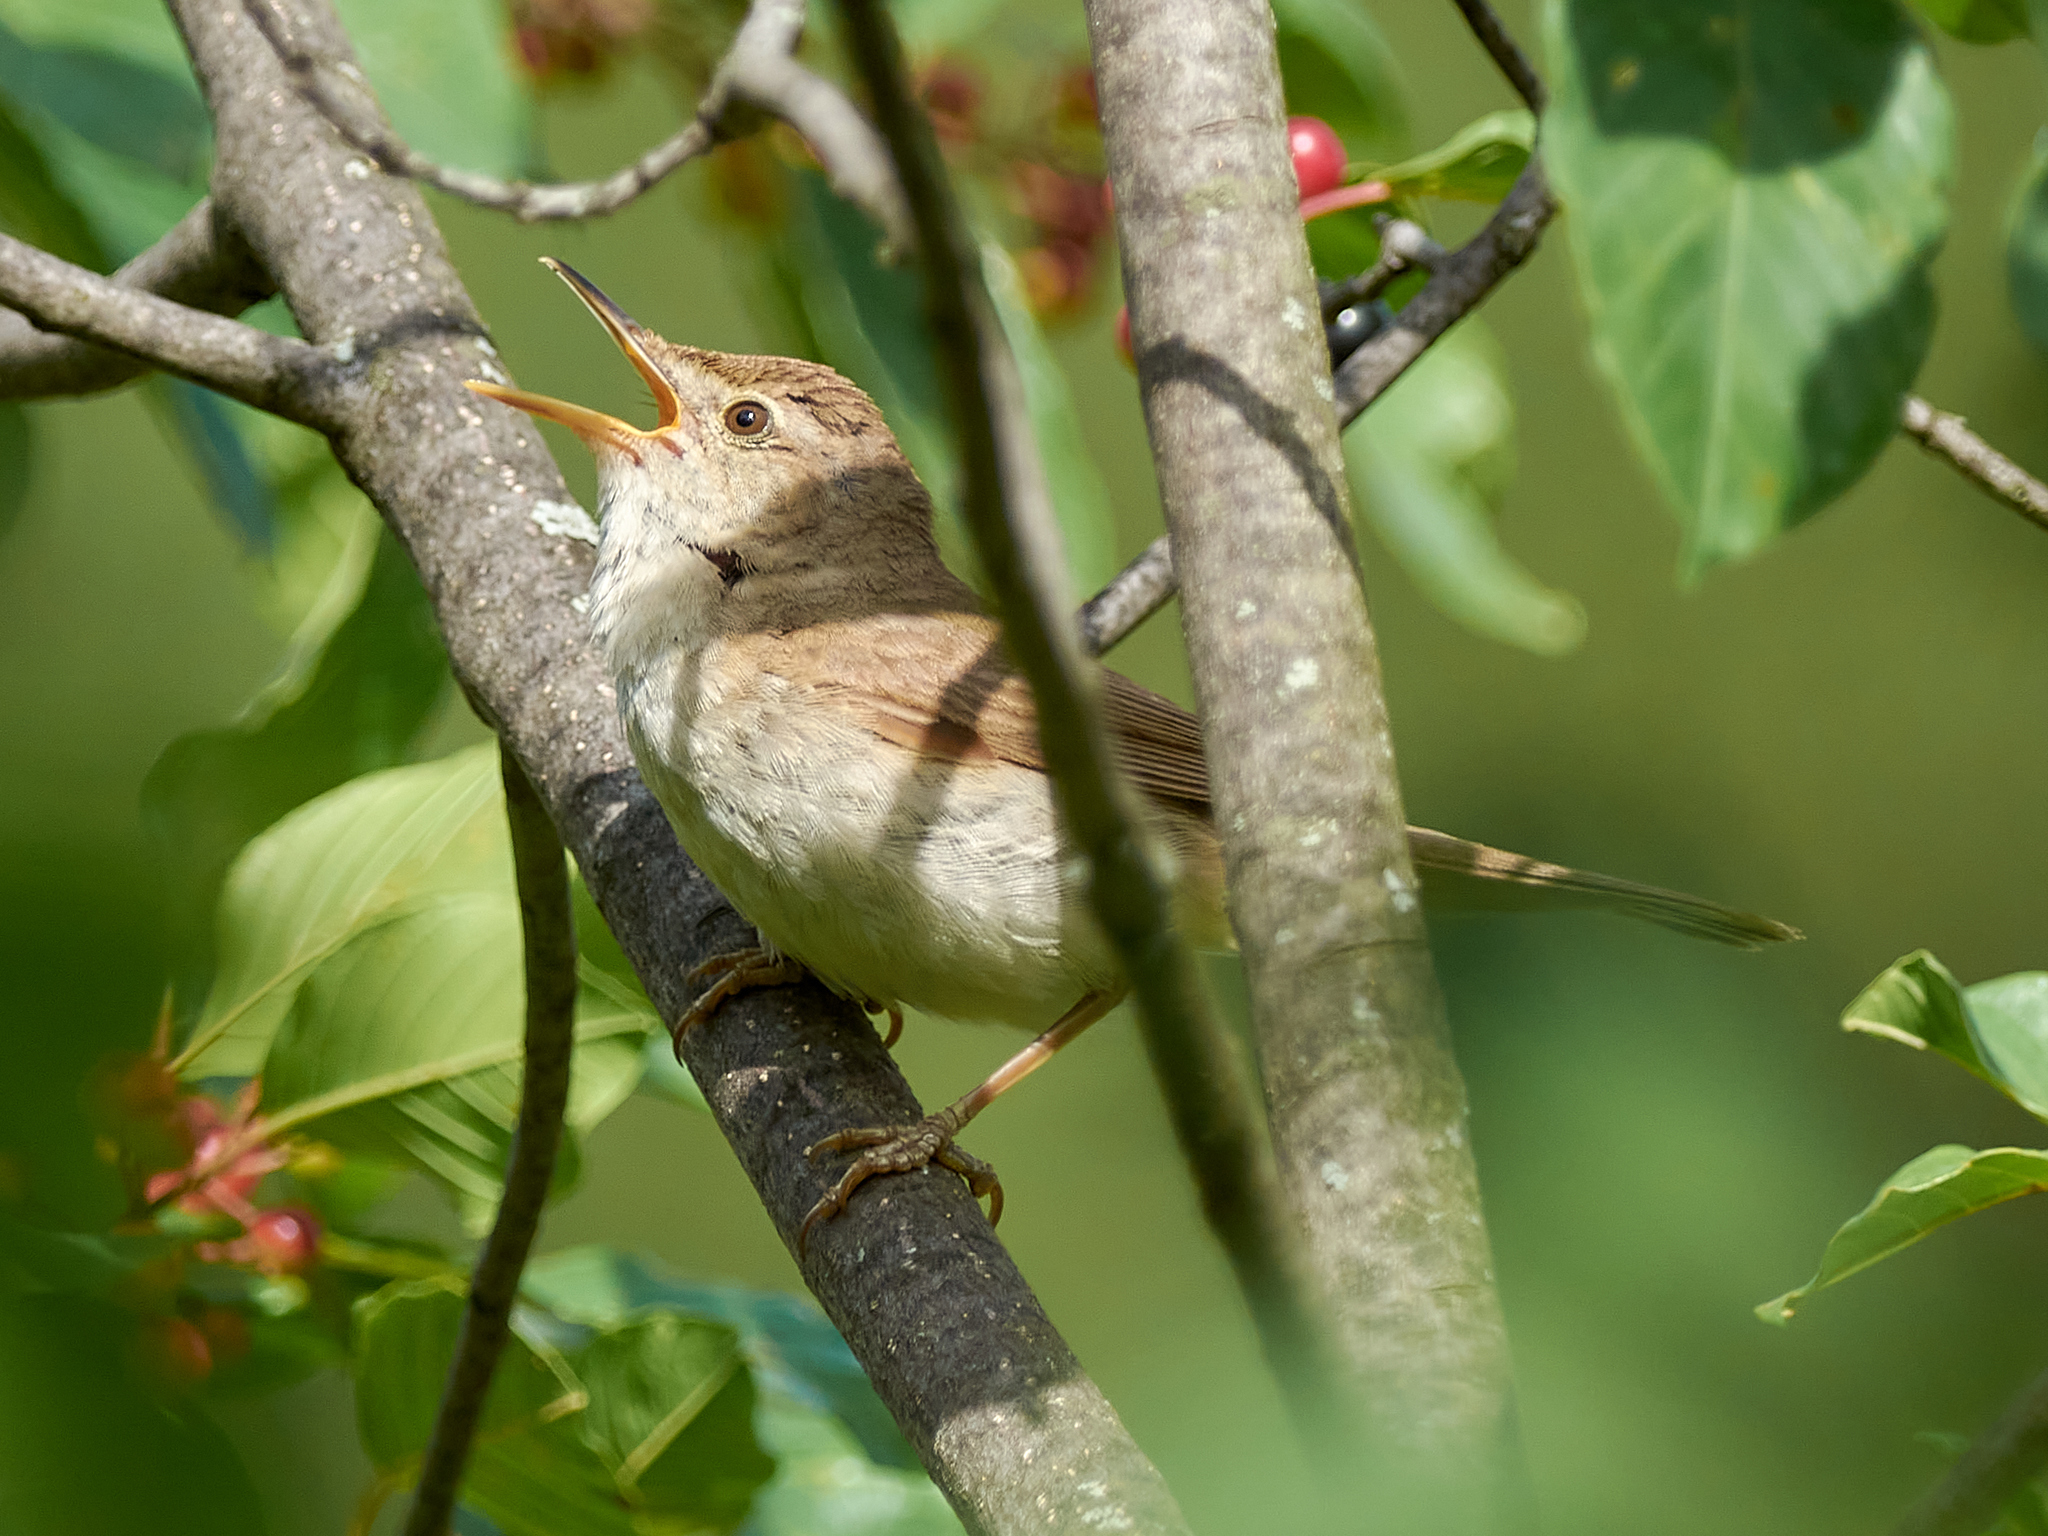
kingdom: Animalia
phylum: Chordata
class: Aves
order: Passeriformes
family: Acrocephalidae
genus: Acrocephalus
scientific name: Acrocephalus dumetorum
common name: Blyth's reed warbler
